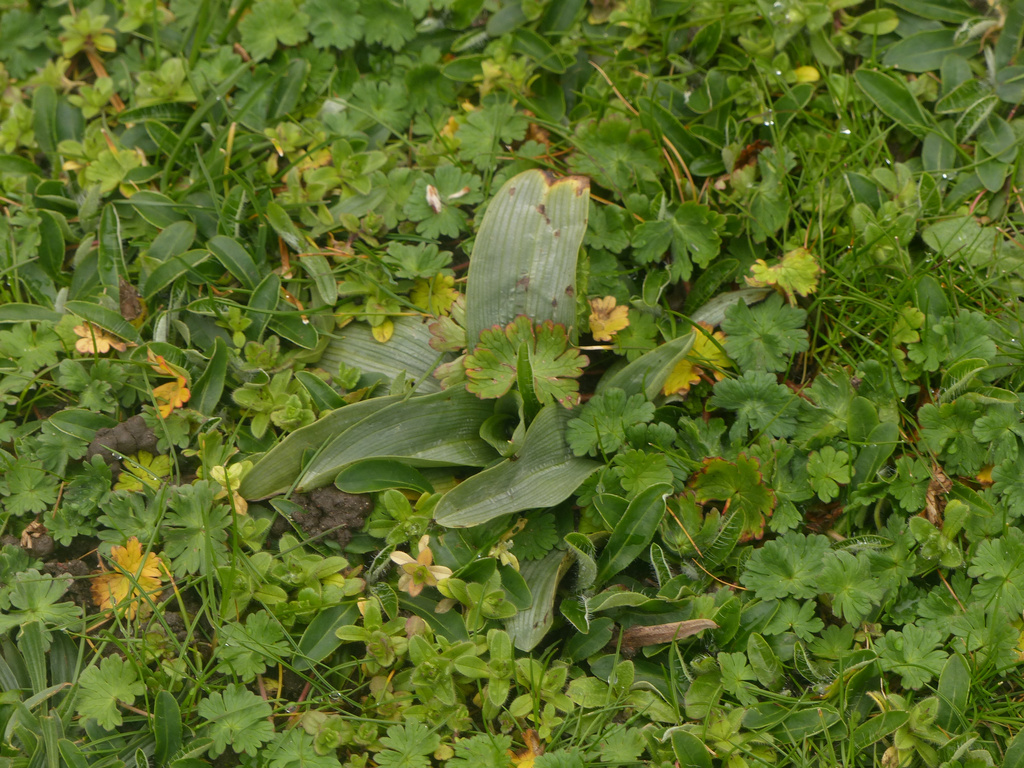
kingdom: Plantae
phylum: Tracheophyta
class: Liliopsida
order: Asparagales
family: Orchidaceae
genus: Ophrys
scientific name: Ophrys apifera
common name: Bee orchid
